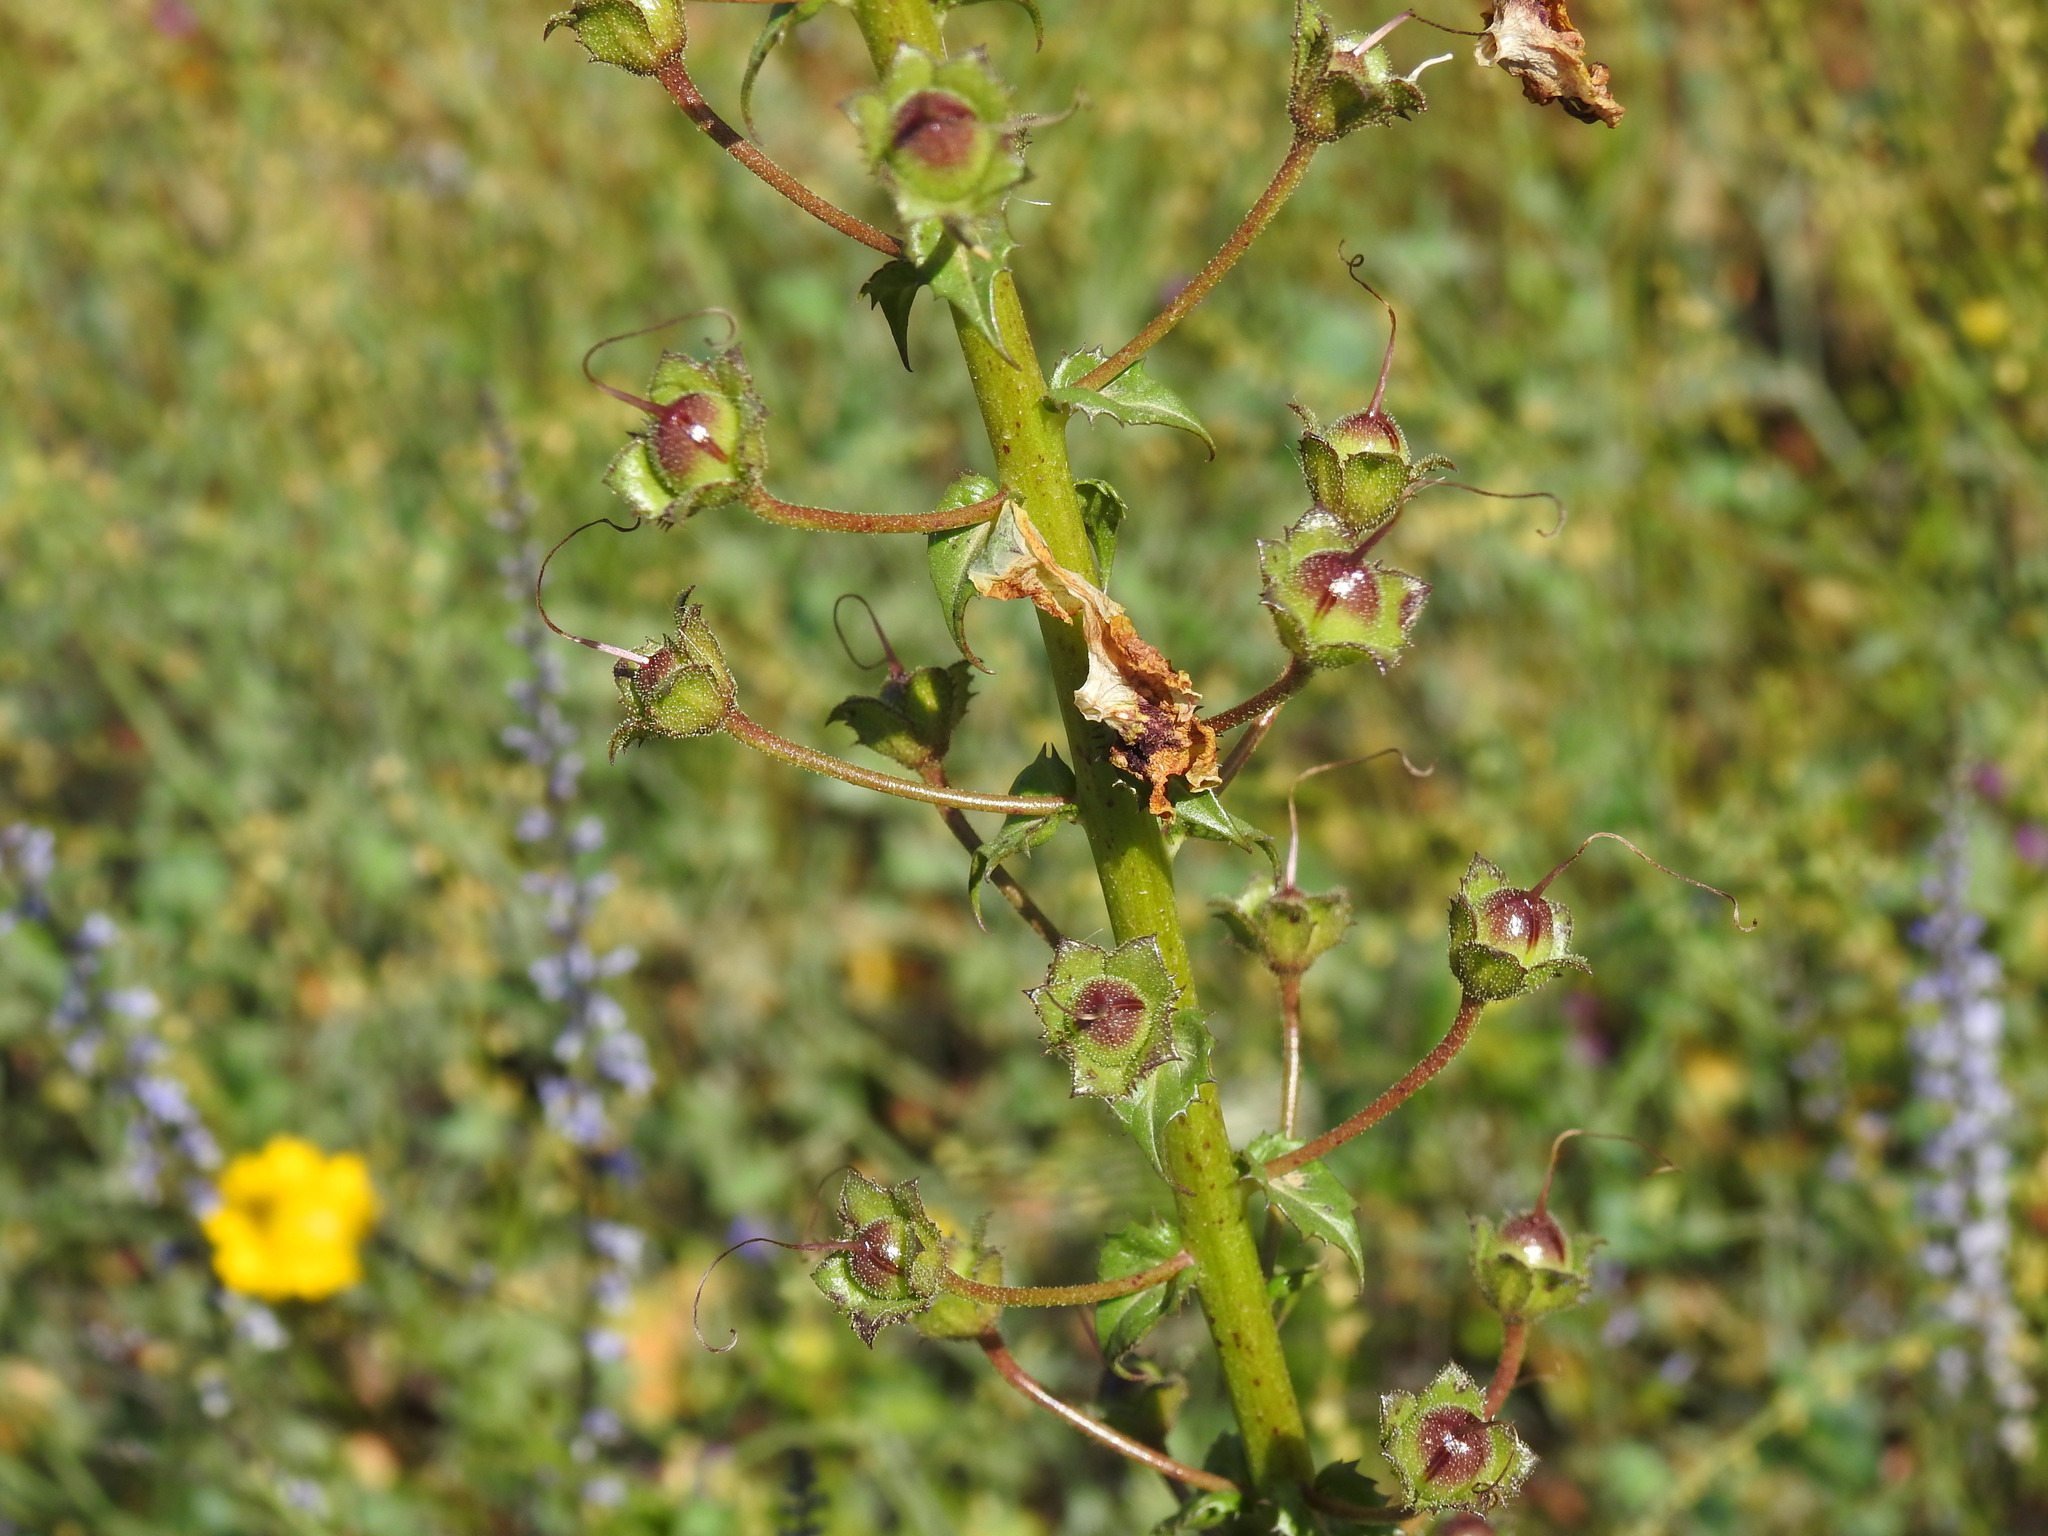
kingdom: Plantae
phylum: Tracheophyta
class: Magnoliopsida
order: Lamiales
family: Scrophulariaceae
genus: Verbascum
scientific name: Verbascum barnadesii
